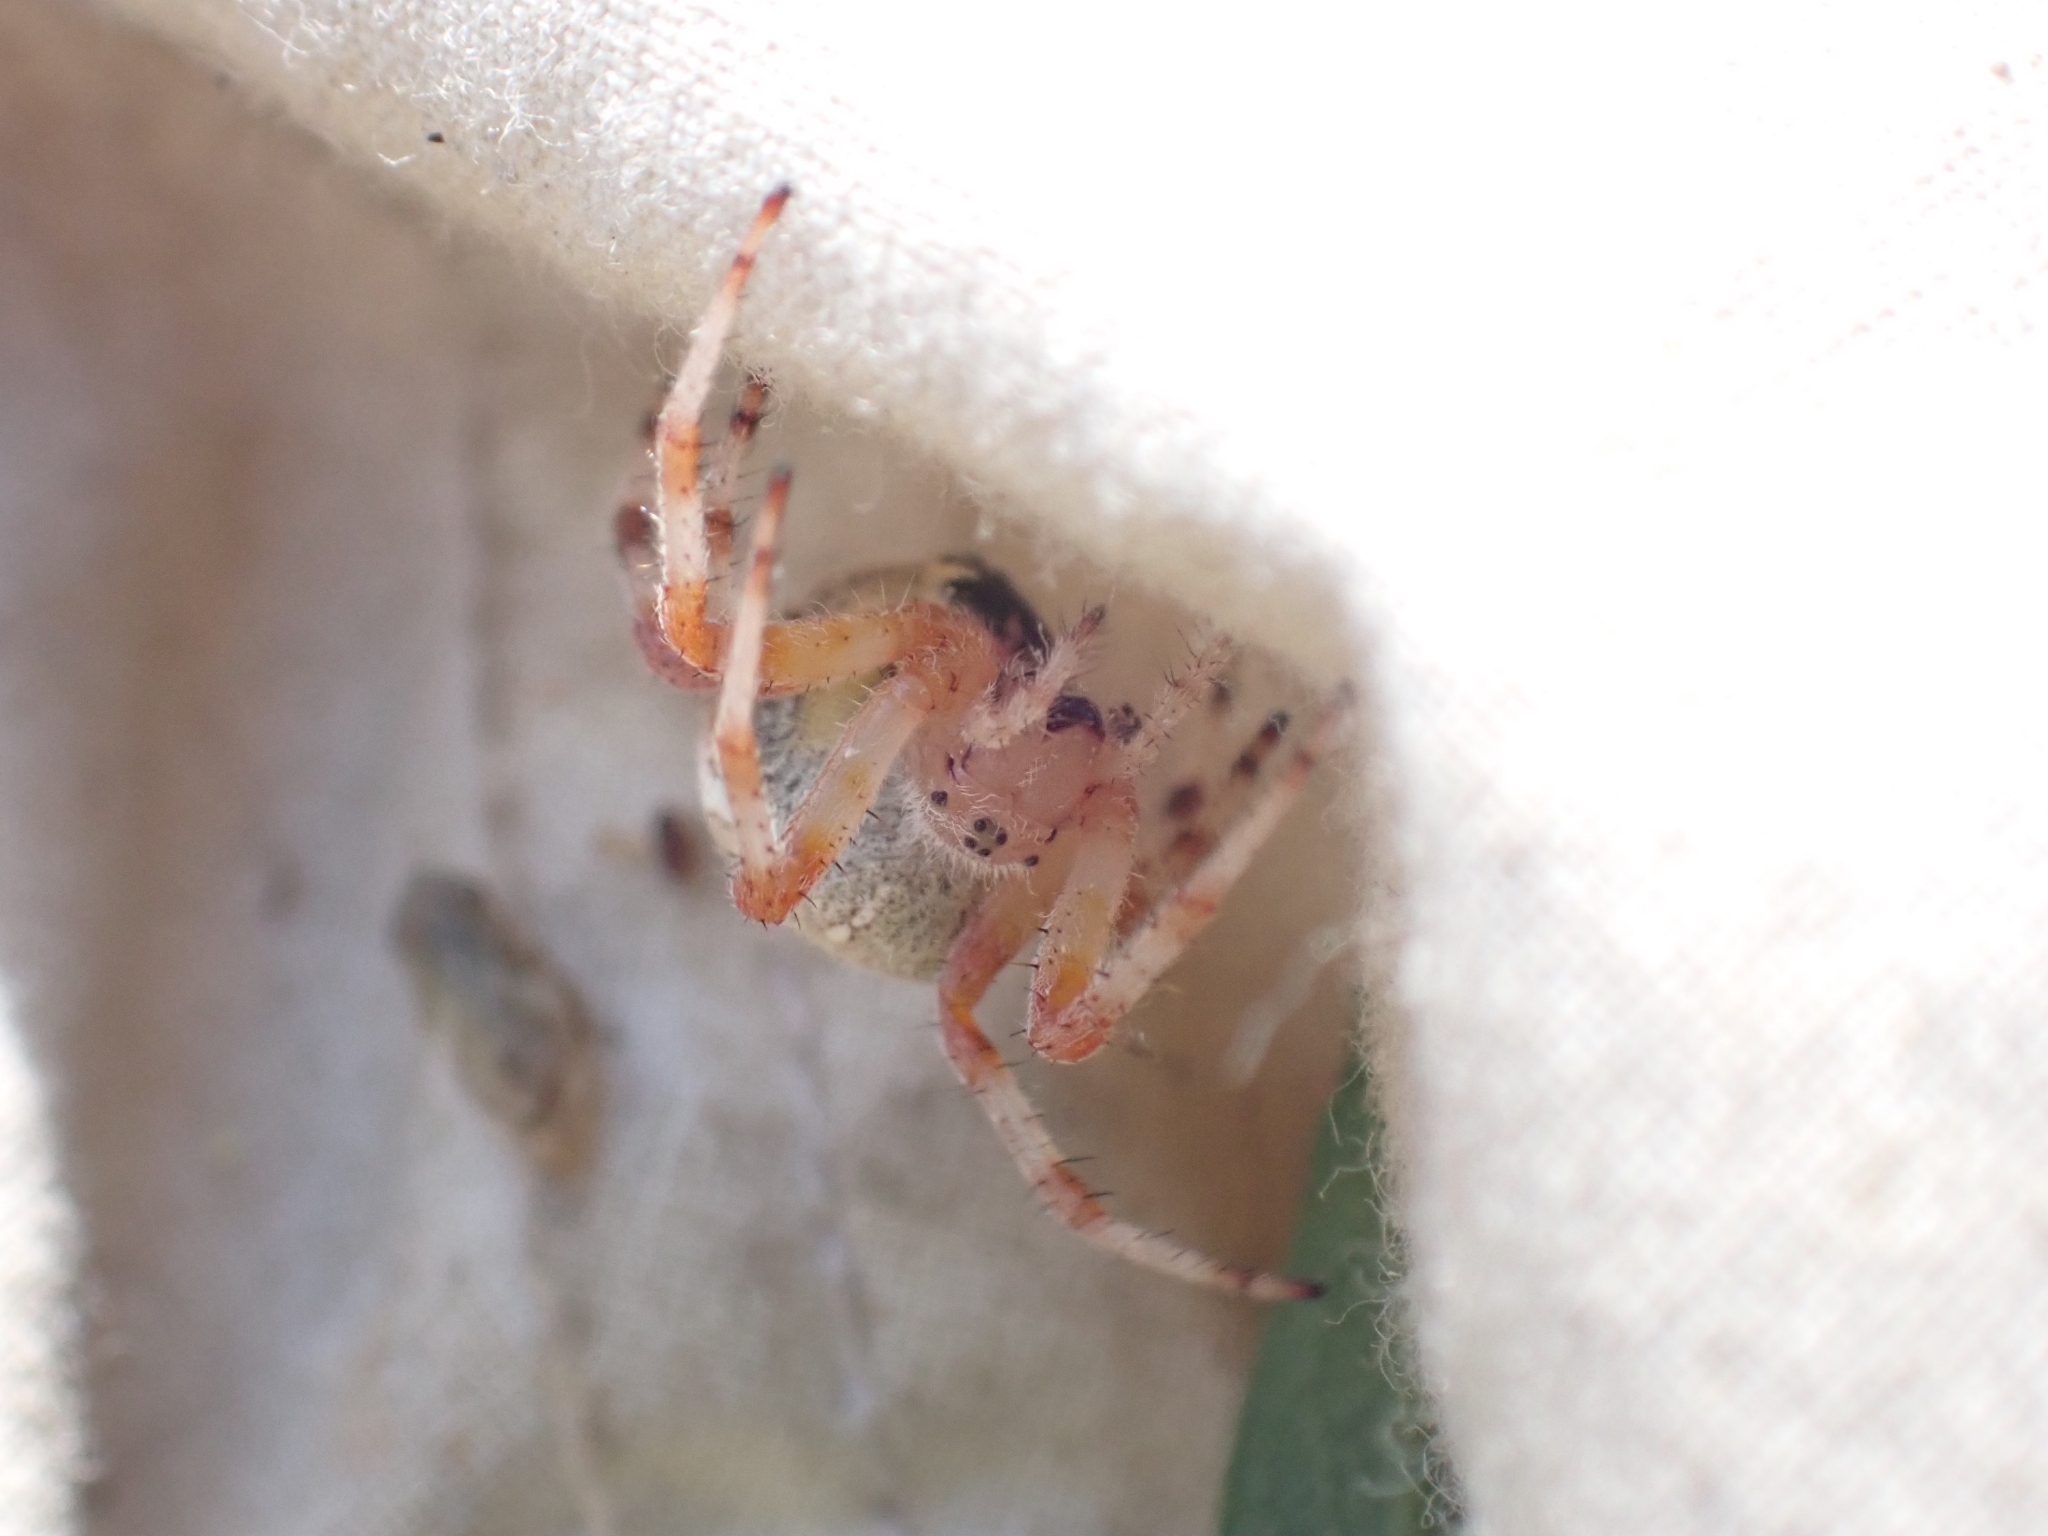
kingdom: Animalia
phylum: Arthropoda
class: Arachnida
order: Araneae
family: Araneidae
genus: Araneus
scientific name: Araneus marmoreus
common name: Marbled orbweaver
